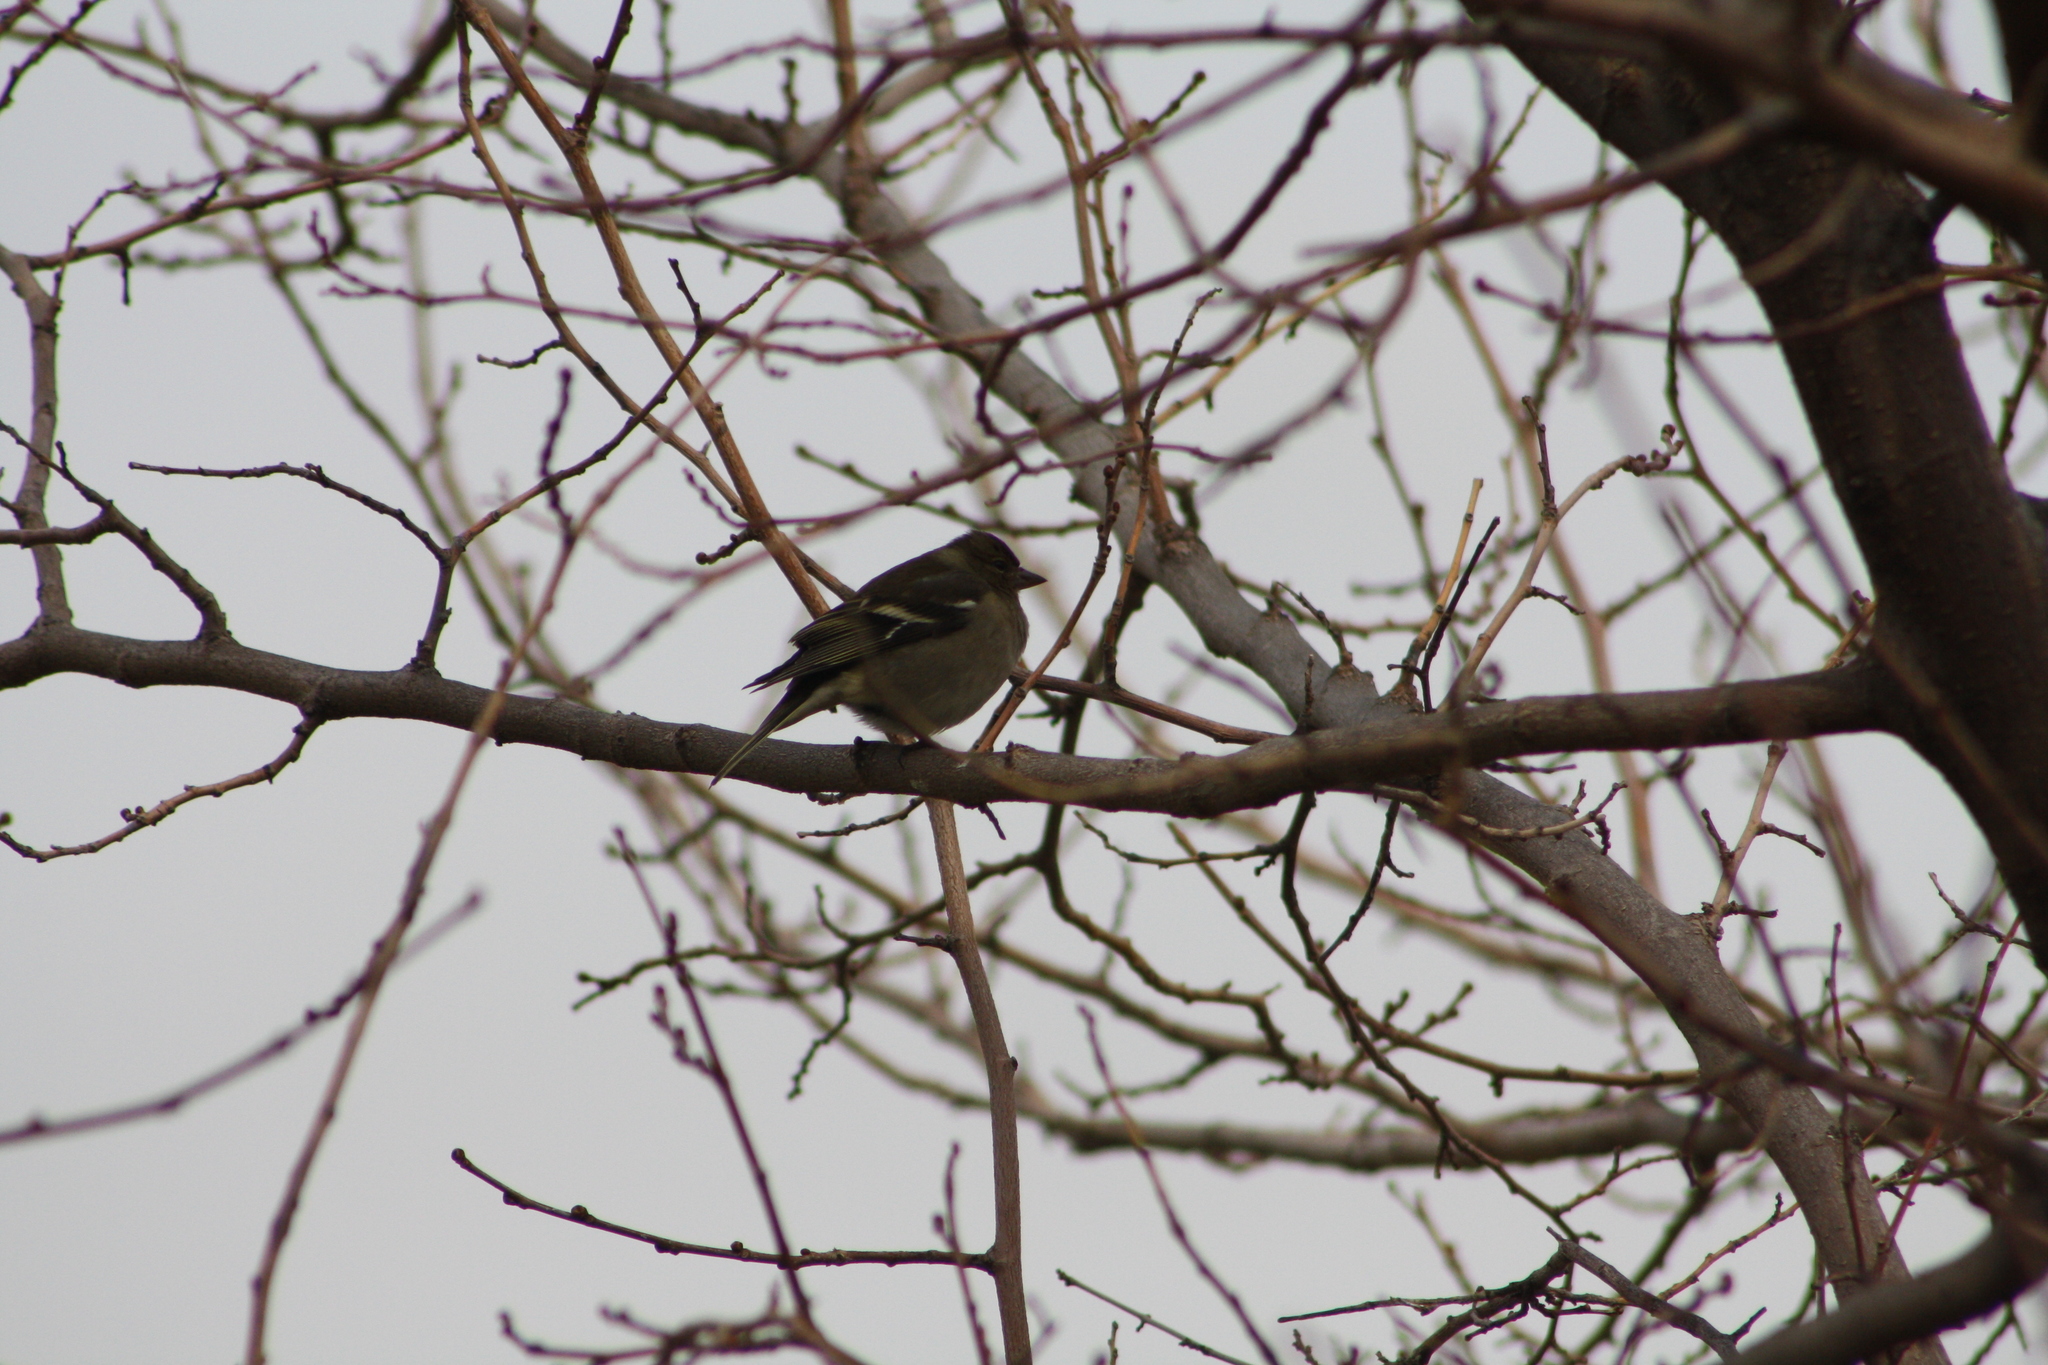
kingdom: Animalia
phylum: Chordata
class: Aves
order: Passeriformes
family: Fringillidae
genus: Fringilla
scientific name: Fringilla coelebs
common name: Common chaffinch
